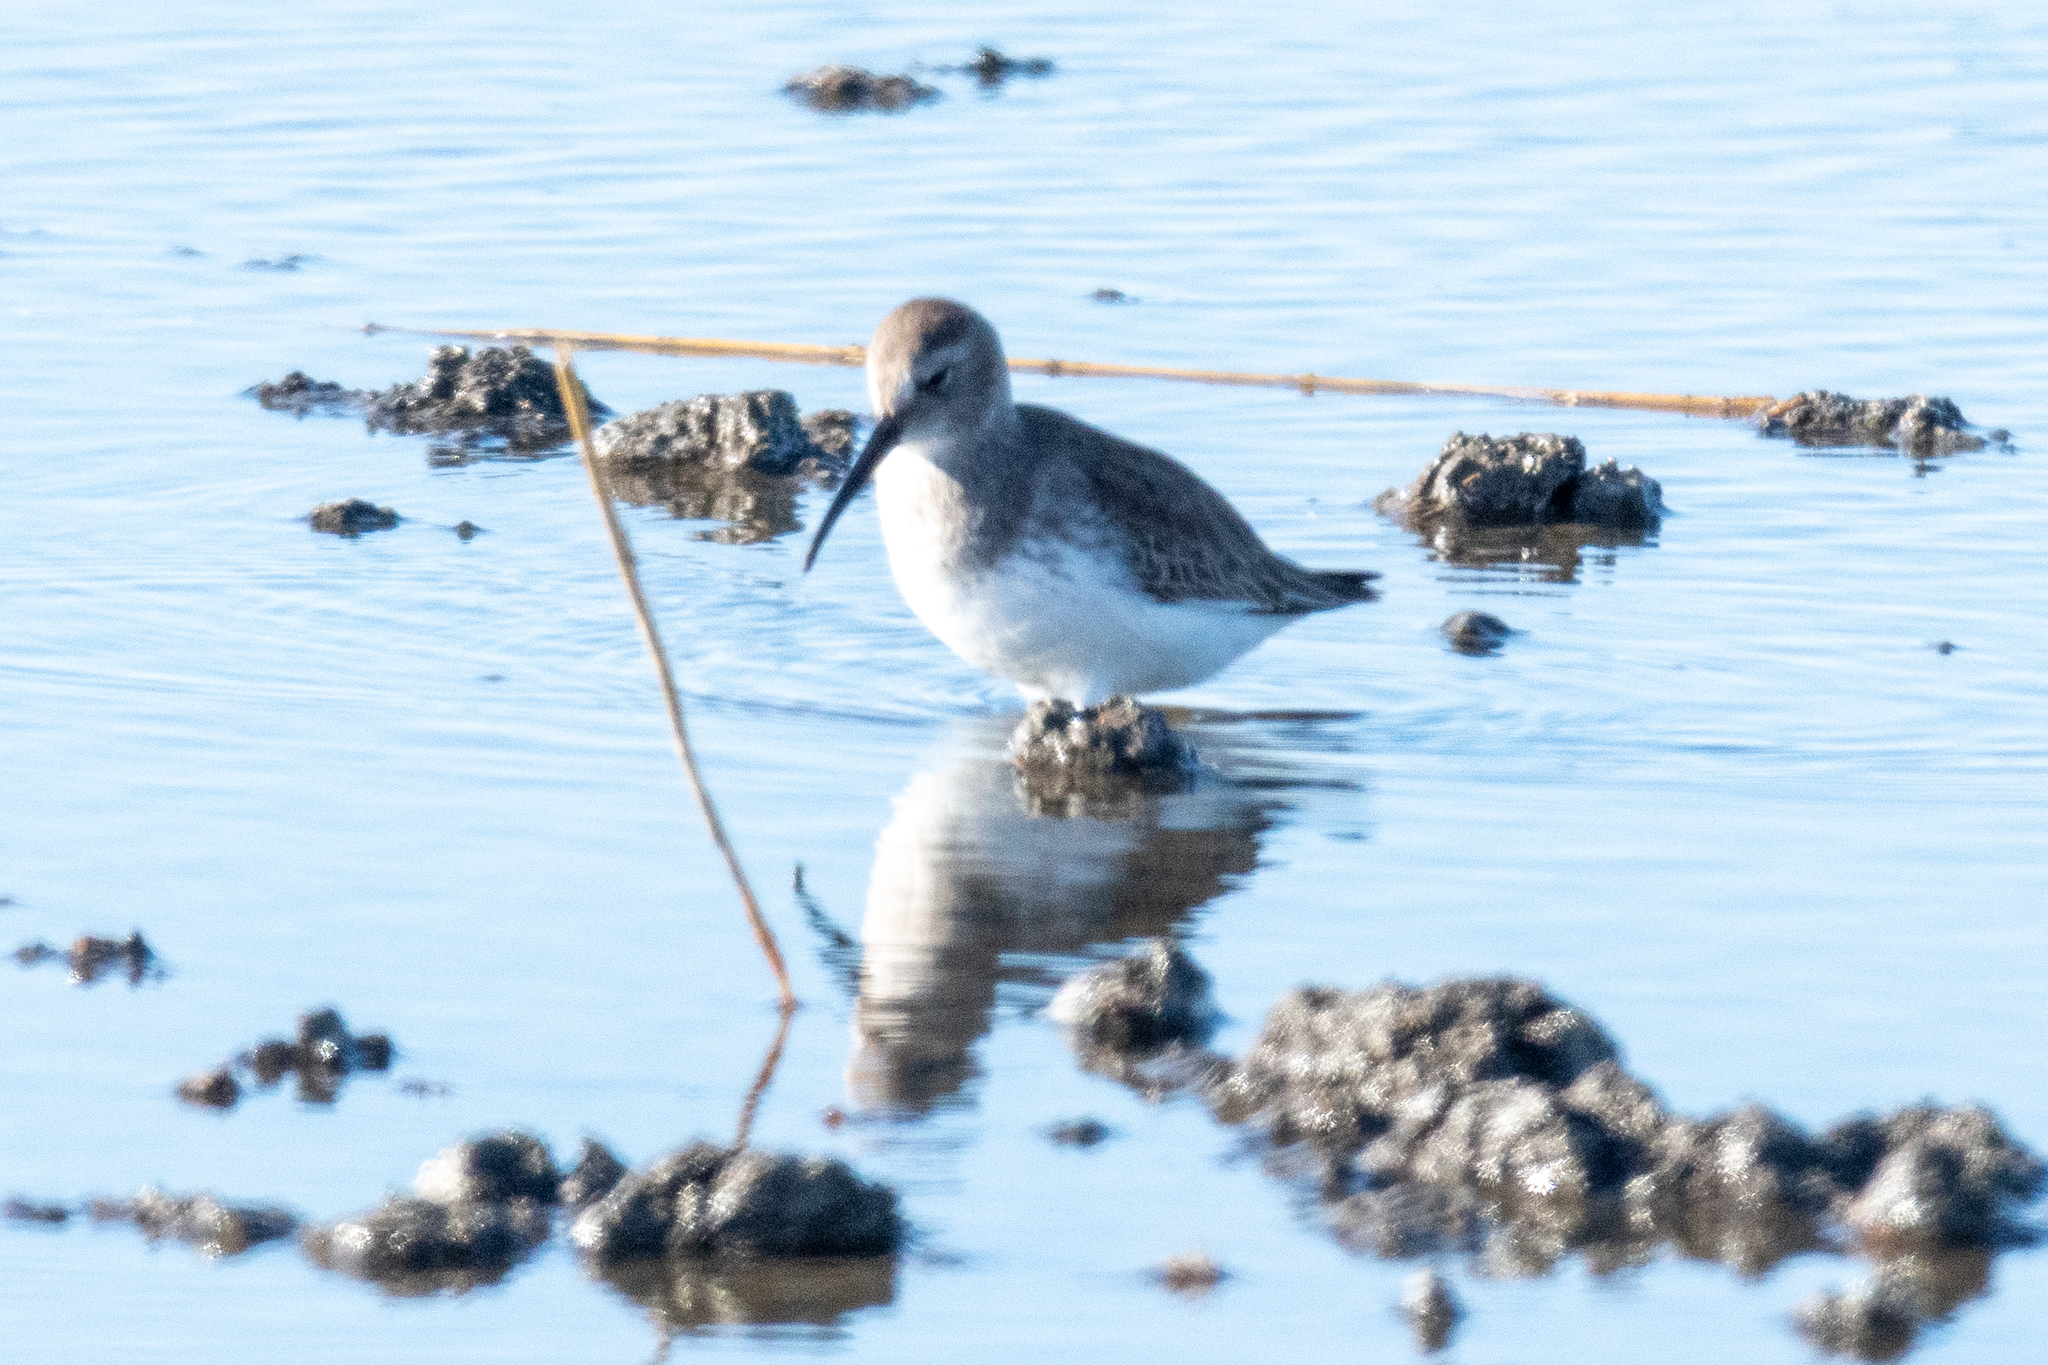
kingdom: Animalia
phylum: Chordata
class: Aves
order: Charadriiformes
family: Scolopacidae
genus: Calidris
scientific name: Calidris alpina
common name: Dunlin
